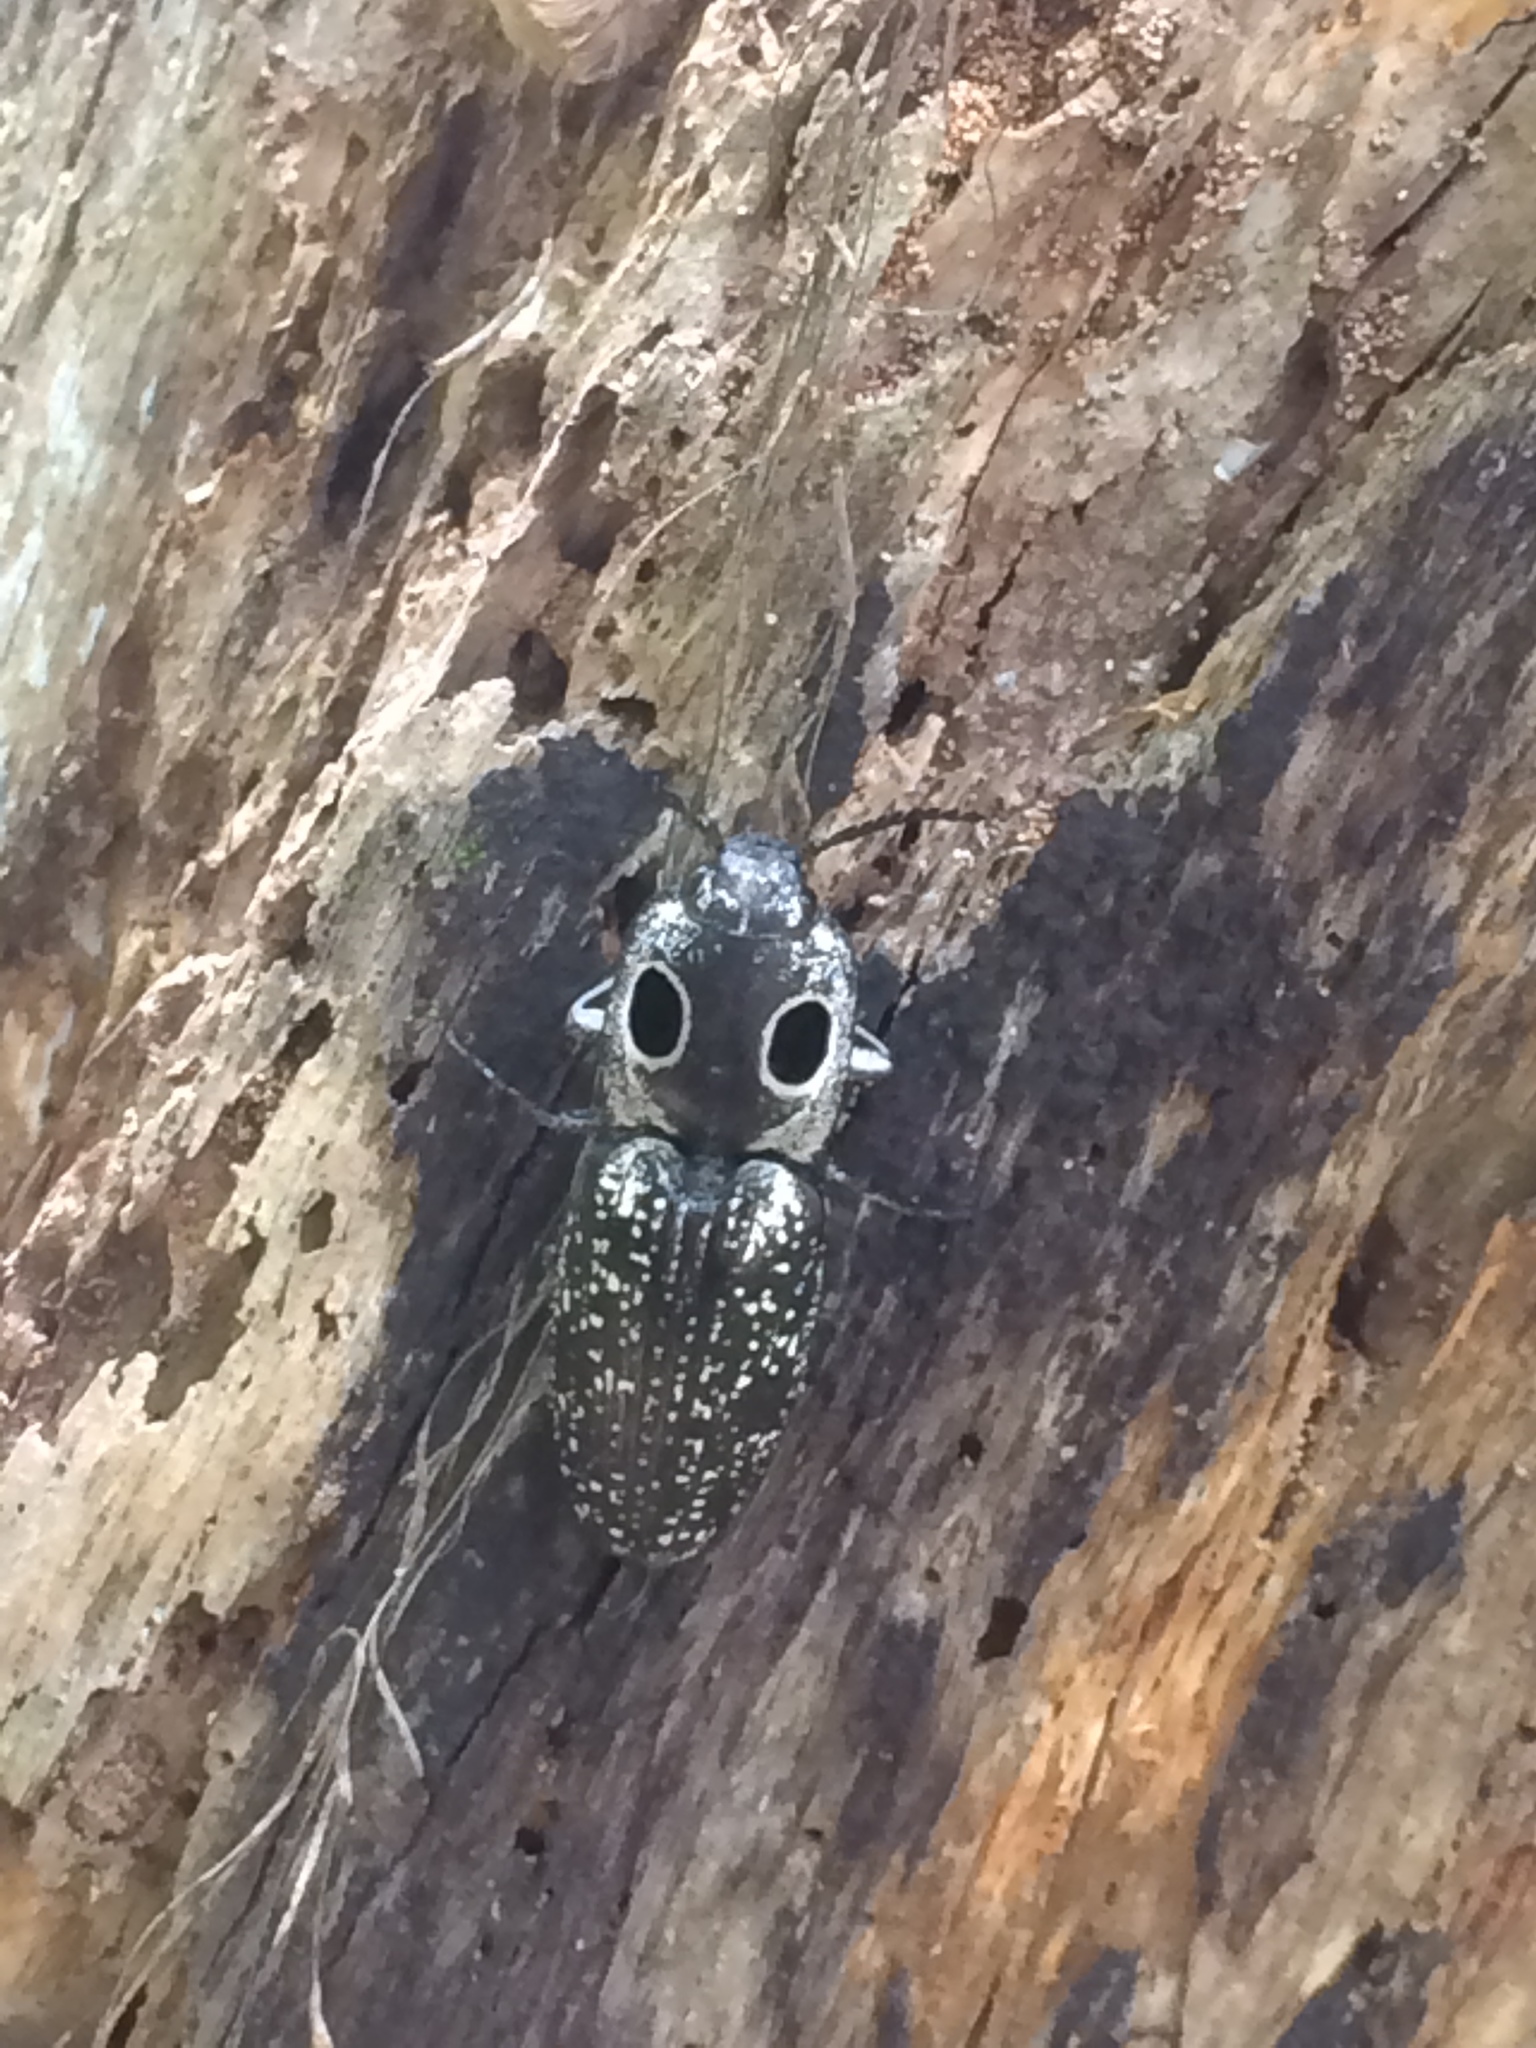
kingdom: Animalia
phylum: Arthropoda
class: Insecta
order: Coleoptera
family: Elateridae
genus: Alaus
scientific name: Alaus oculatus
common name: Eastern eyed click beetle
